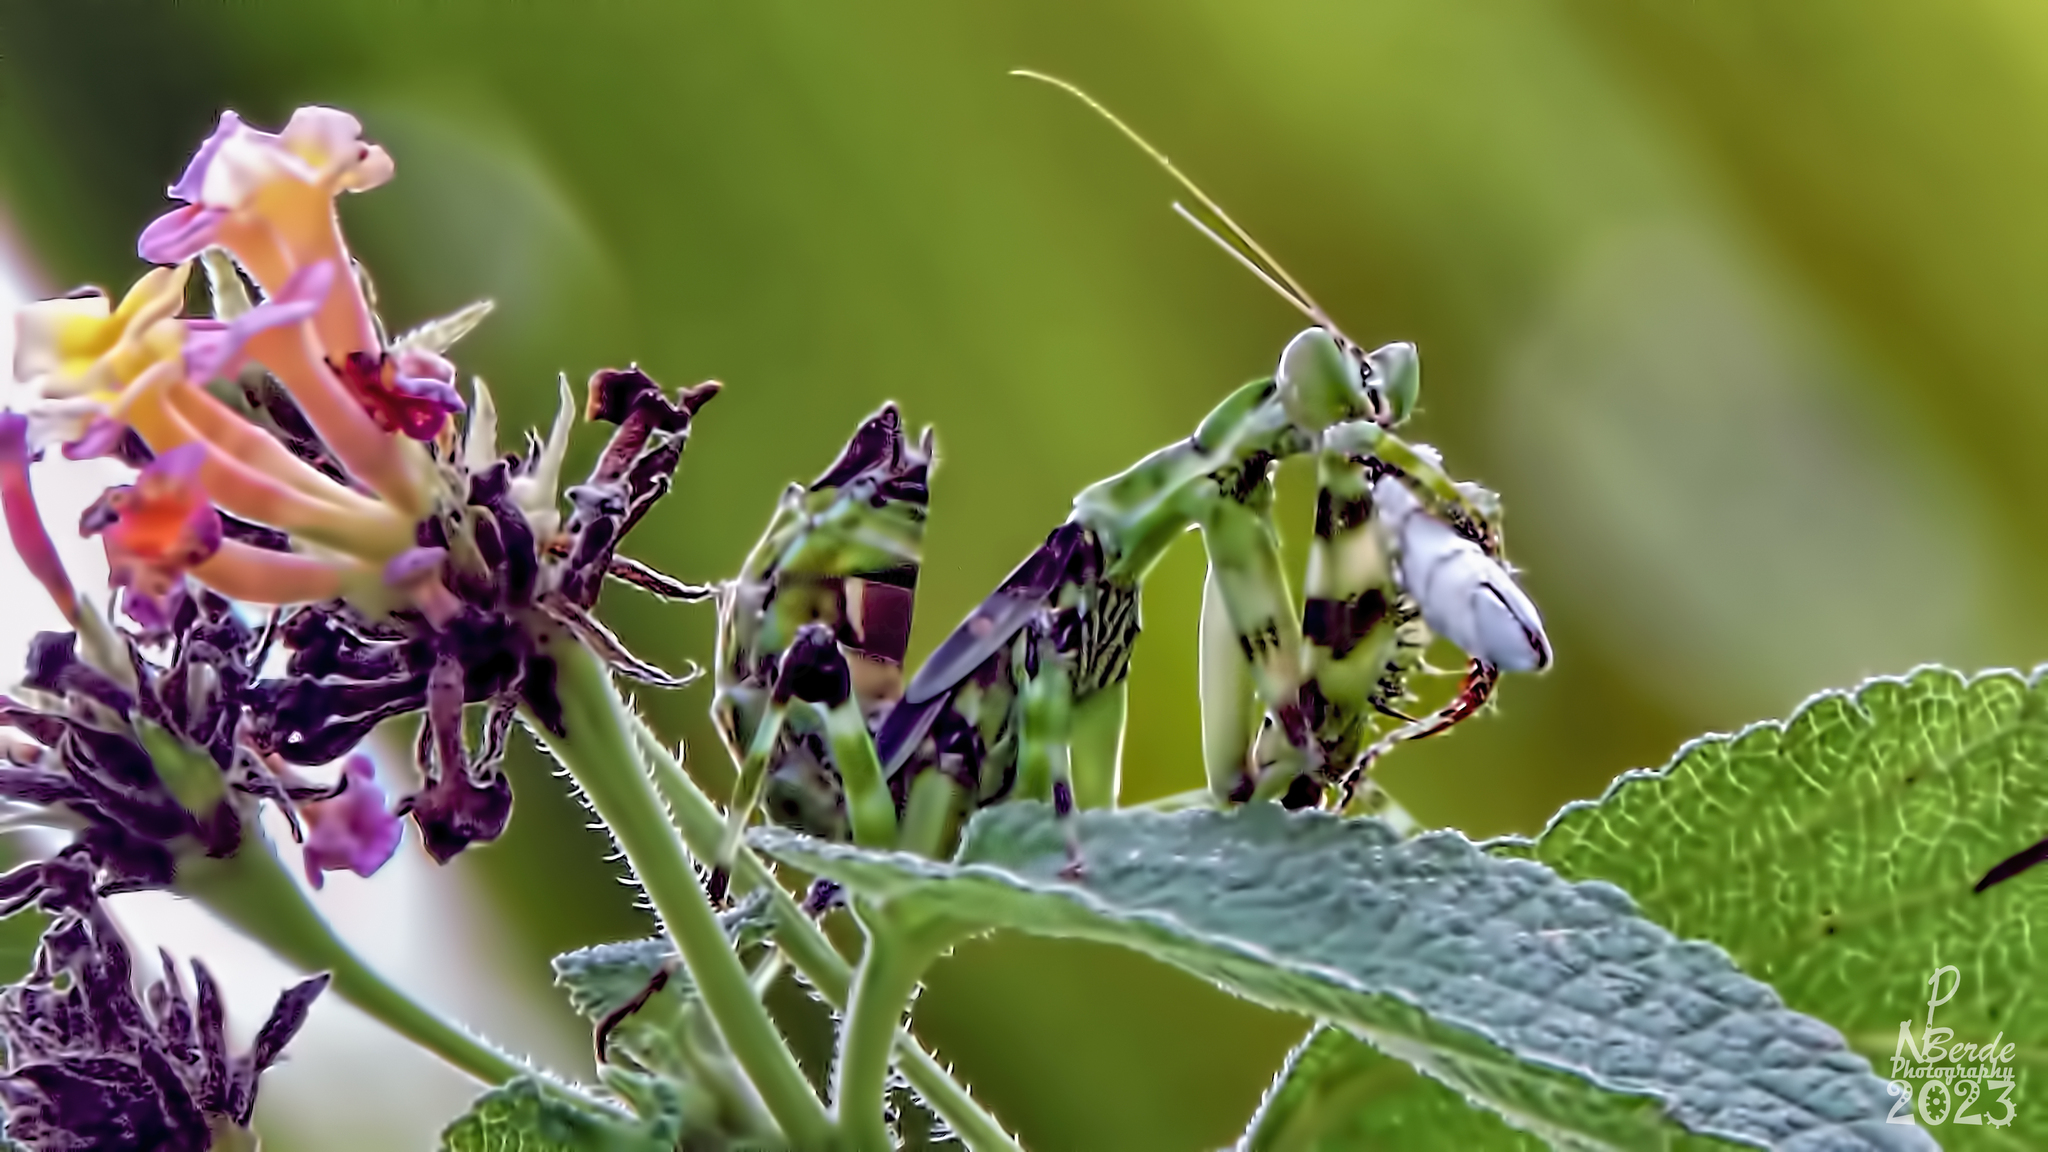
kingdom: Animalia
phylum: Arthropoda
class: Insecta
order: Mantodea
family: Hymenopodidae
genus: Creobroter
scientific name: Creobroter gemmatus
